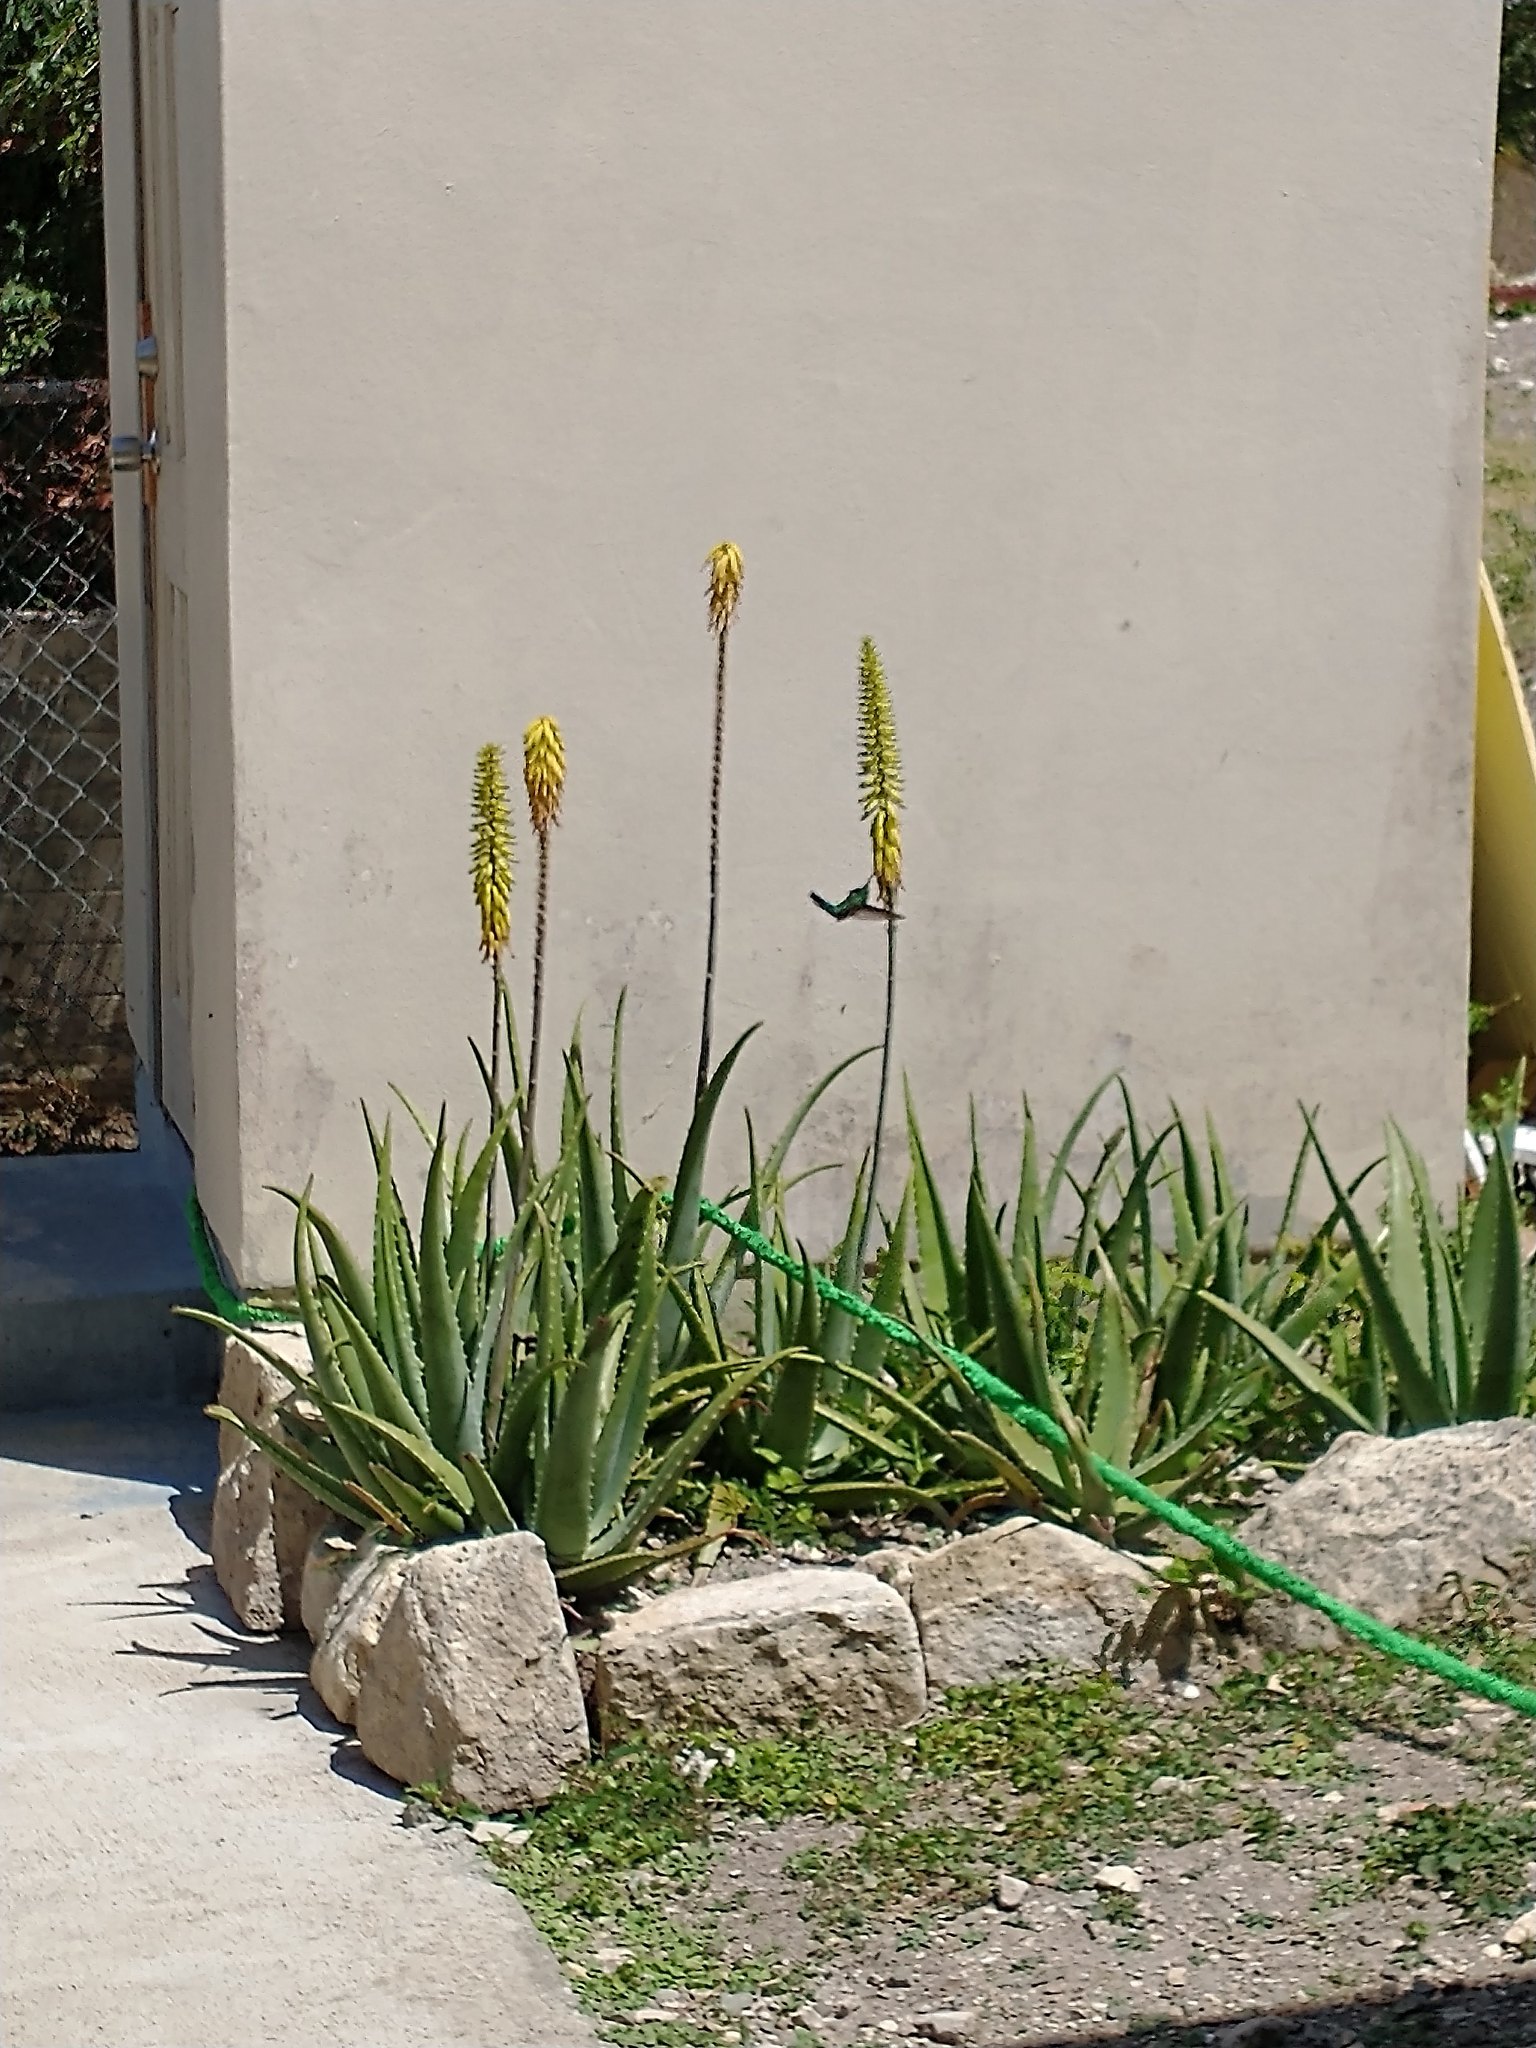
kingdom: Animalia
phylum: Chordata
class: Aves
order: Apodiformes
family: Trochilidae
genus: Eulampis
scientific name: Eulampis holosericeus
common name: Green-throated carib
